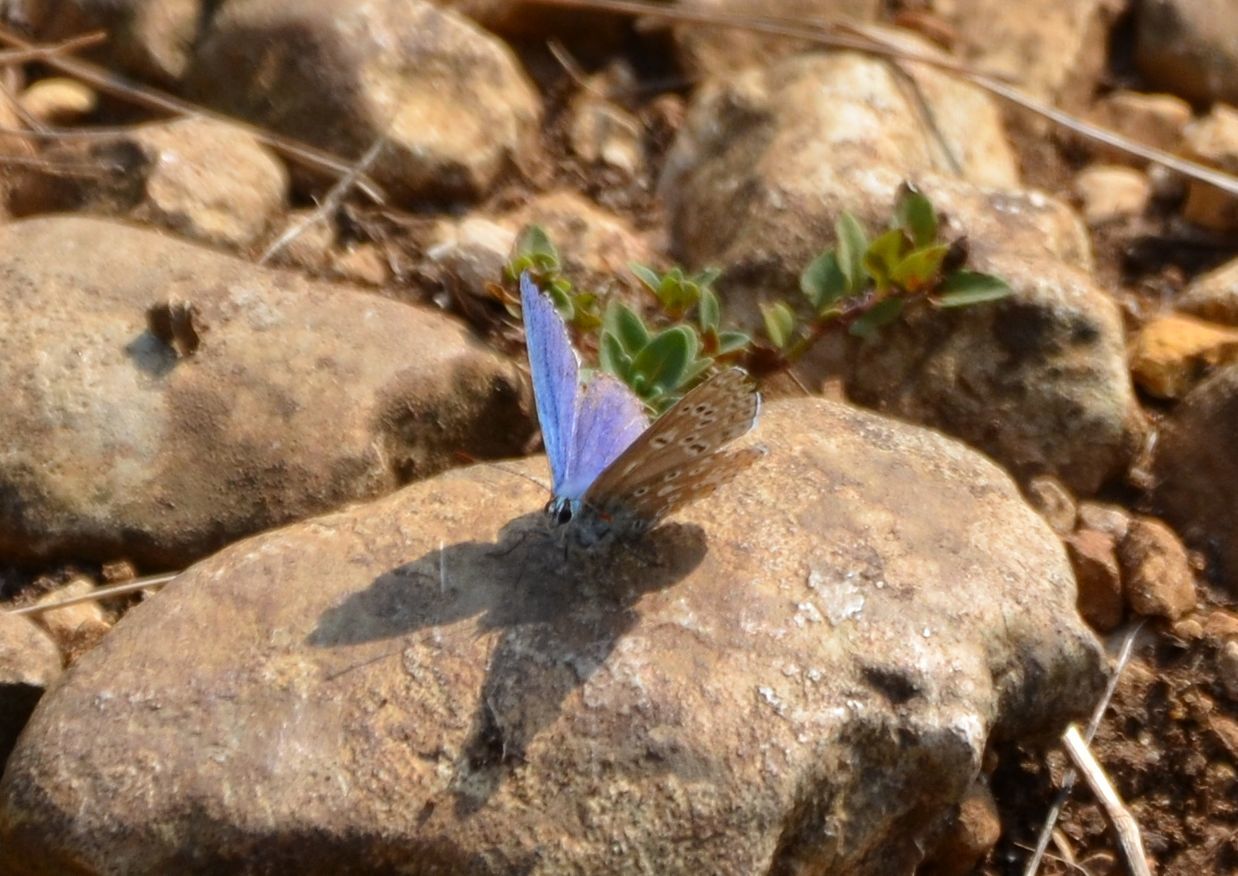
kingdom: Animalia
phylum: Arthropoda
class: Insecta
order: Lepidoptera
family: Lycaenidae
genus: Lysandra
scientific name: Lysandra bellargus
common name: Adonis blue
